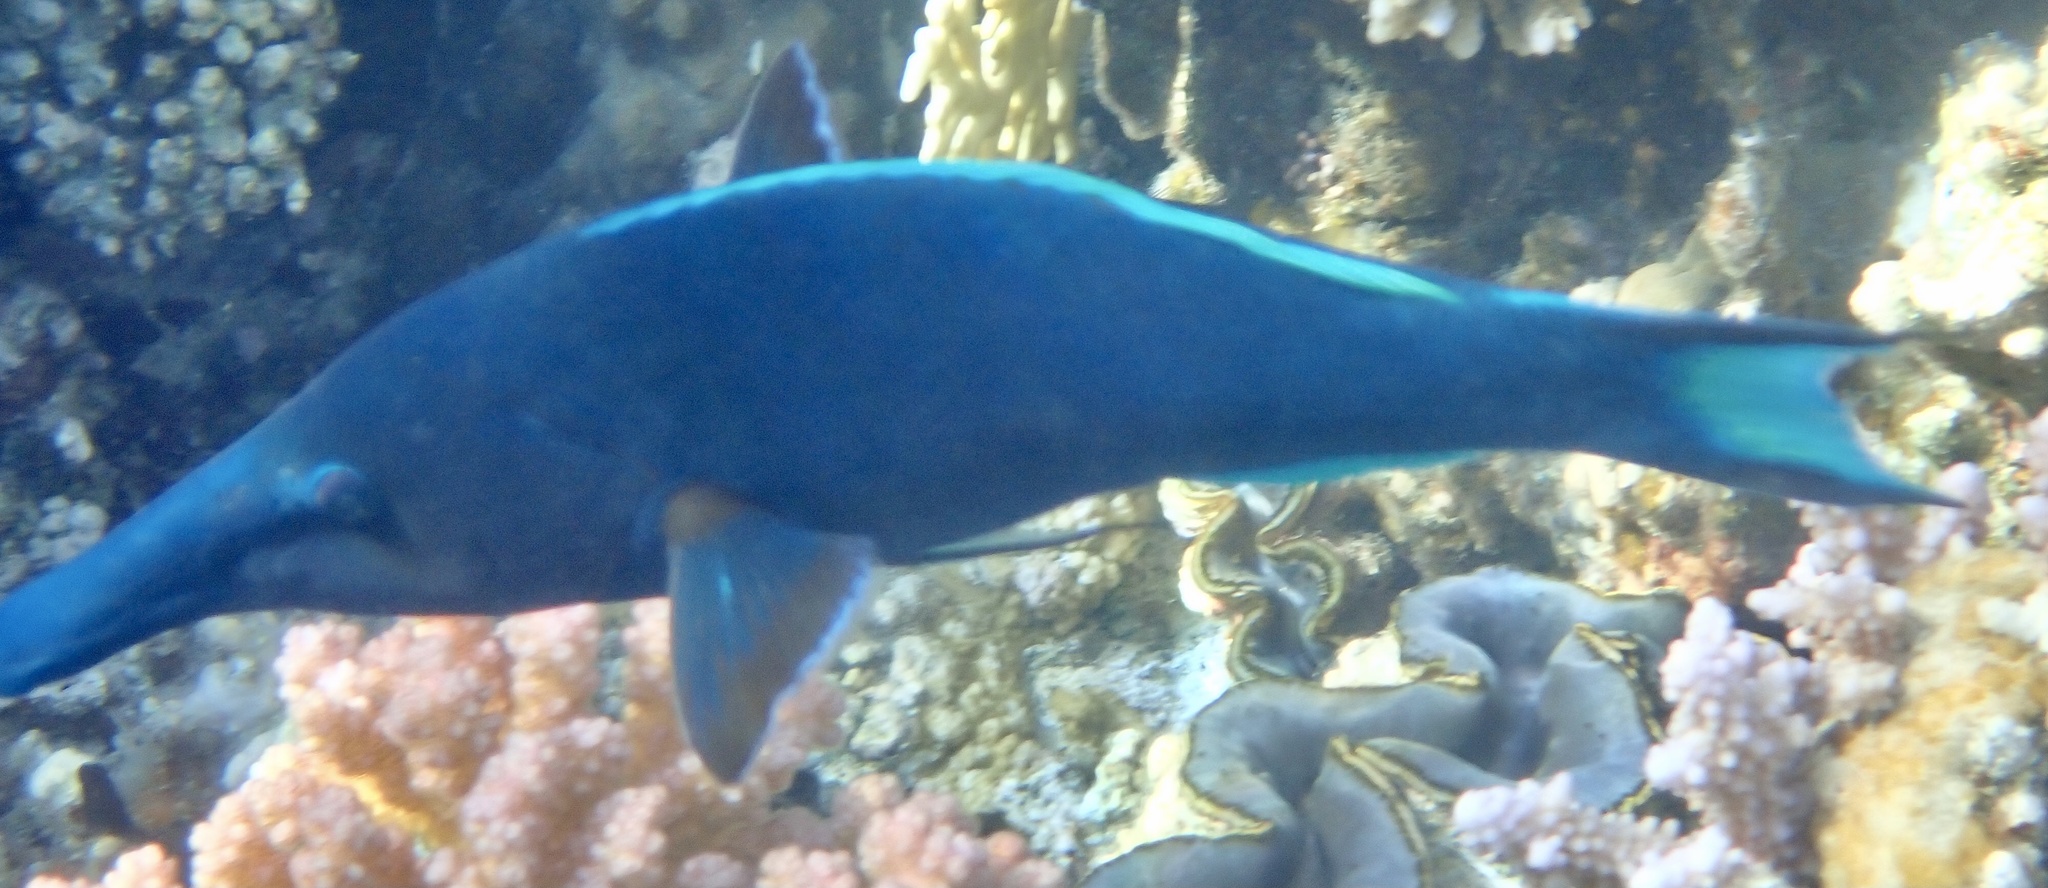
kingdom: Animalia
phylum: Chordata
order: Perciformes
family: Labridae
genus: Gomphosus
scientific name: Gomphosus klunzingeri
